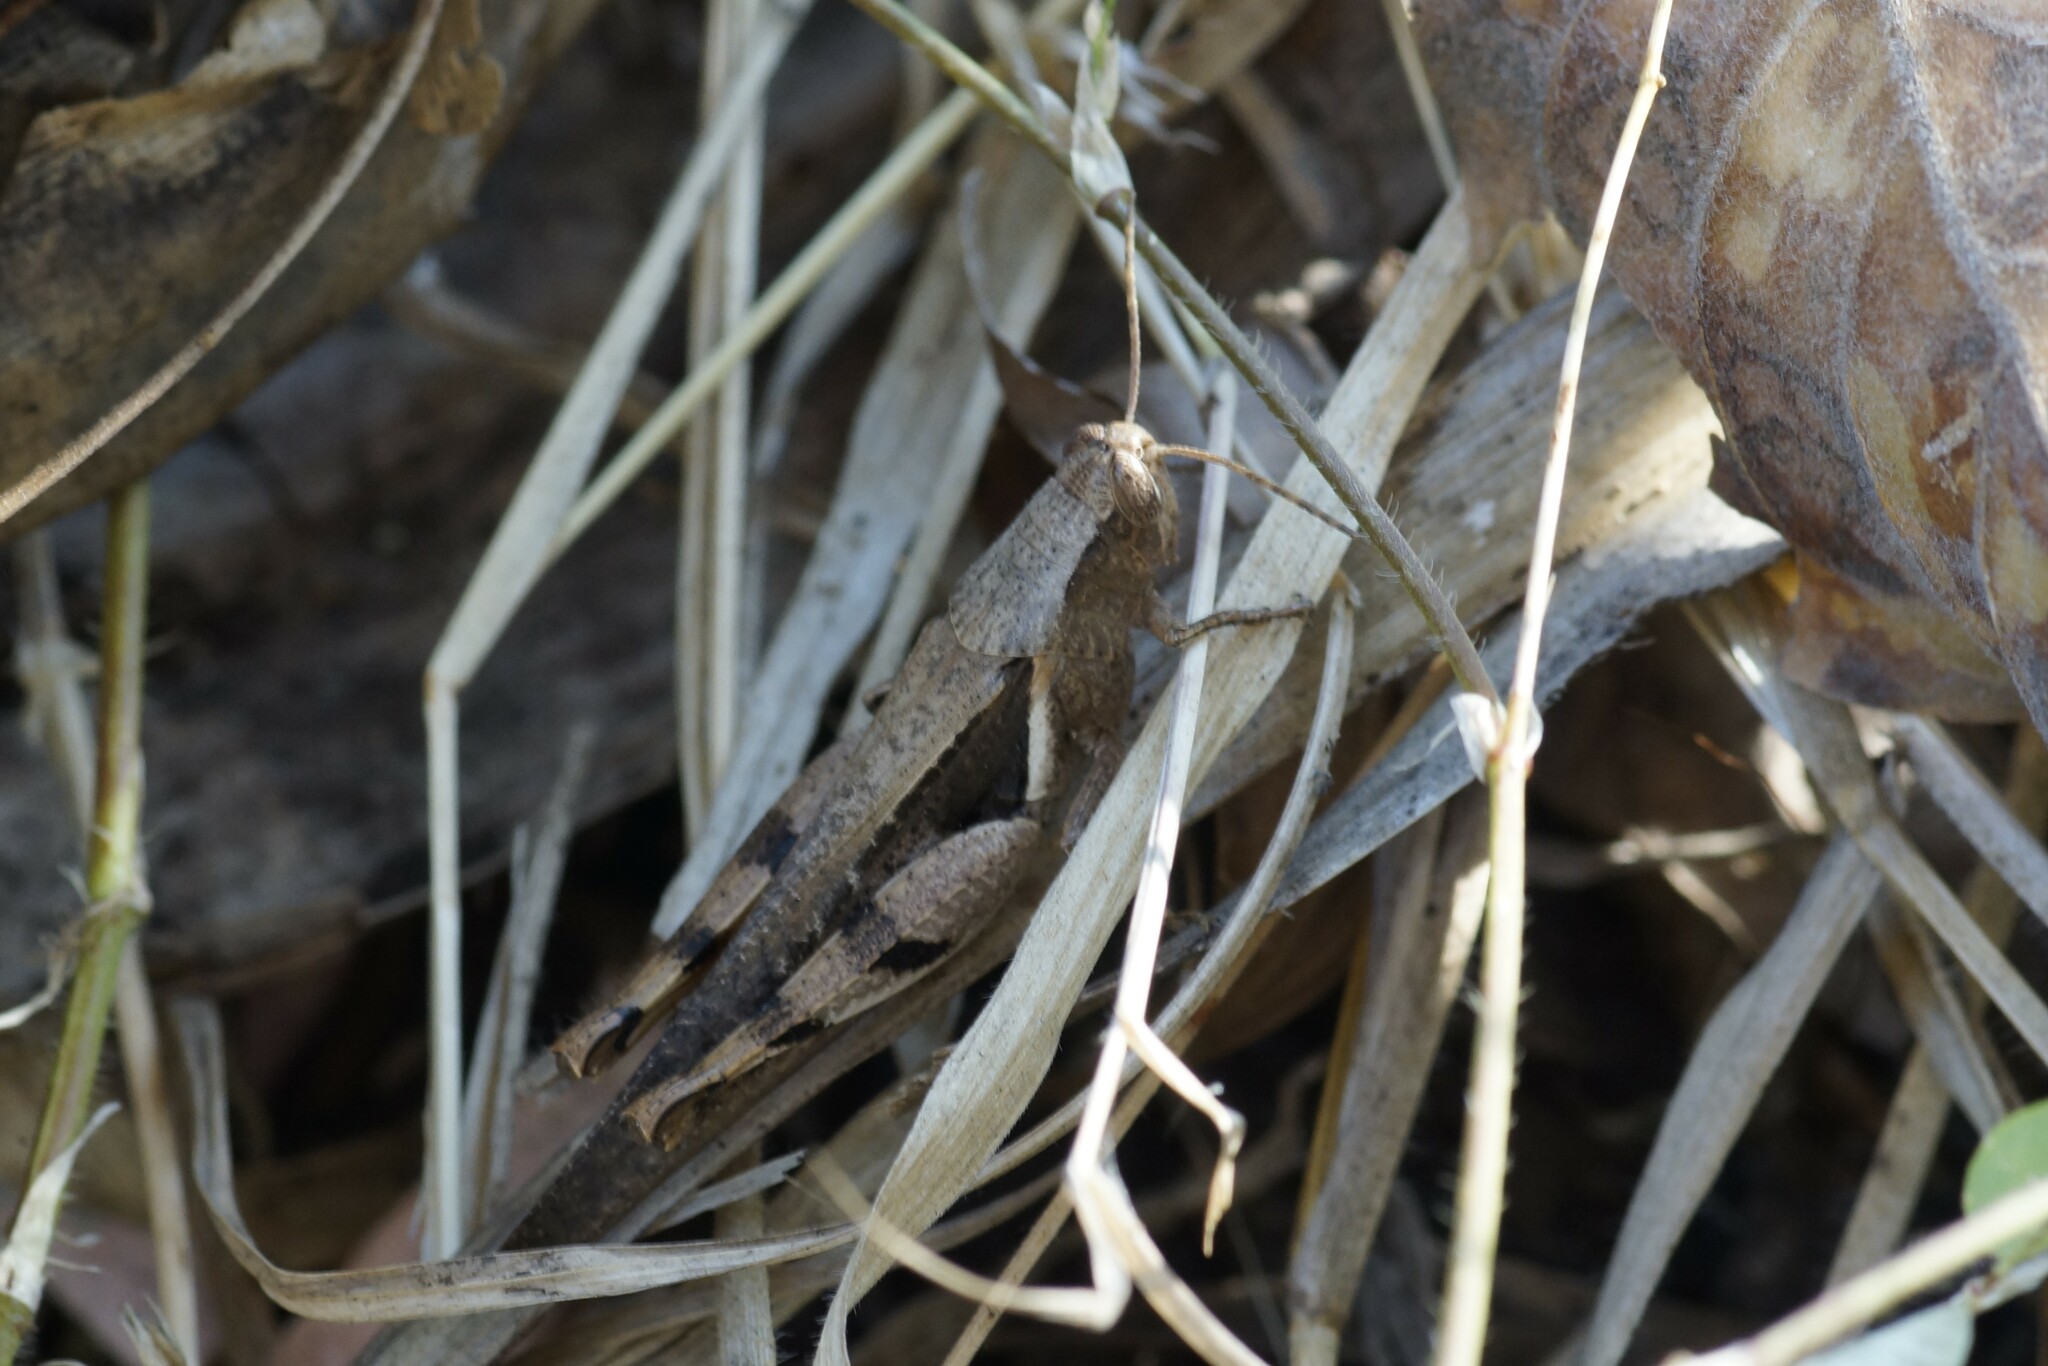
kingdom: Animalia
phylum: Arthropoda
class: Insecta
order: Orthoptera
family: Acrididae
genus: Stenocatantops
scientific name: Stenocatantops angustifrons
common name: Common tropical sharptail
